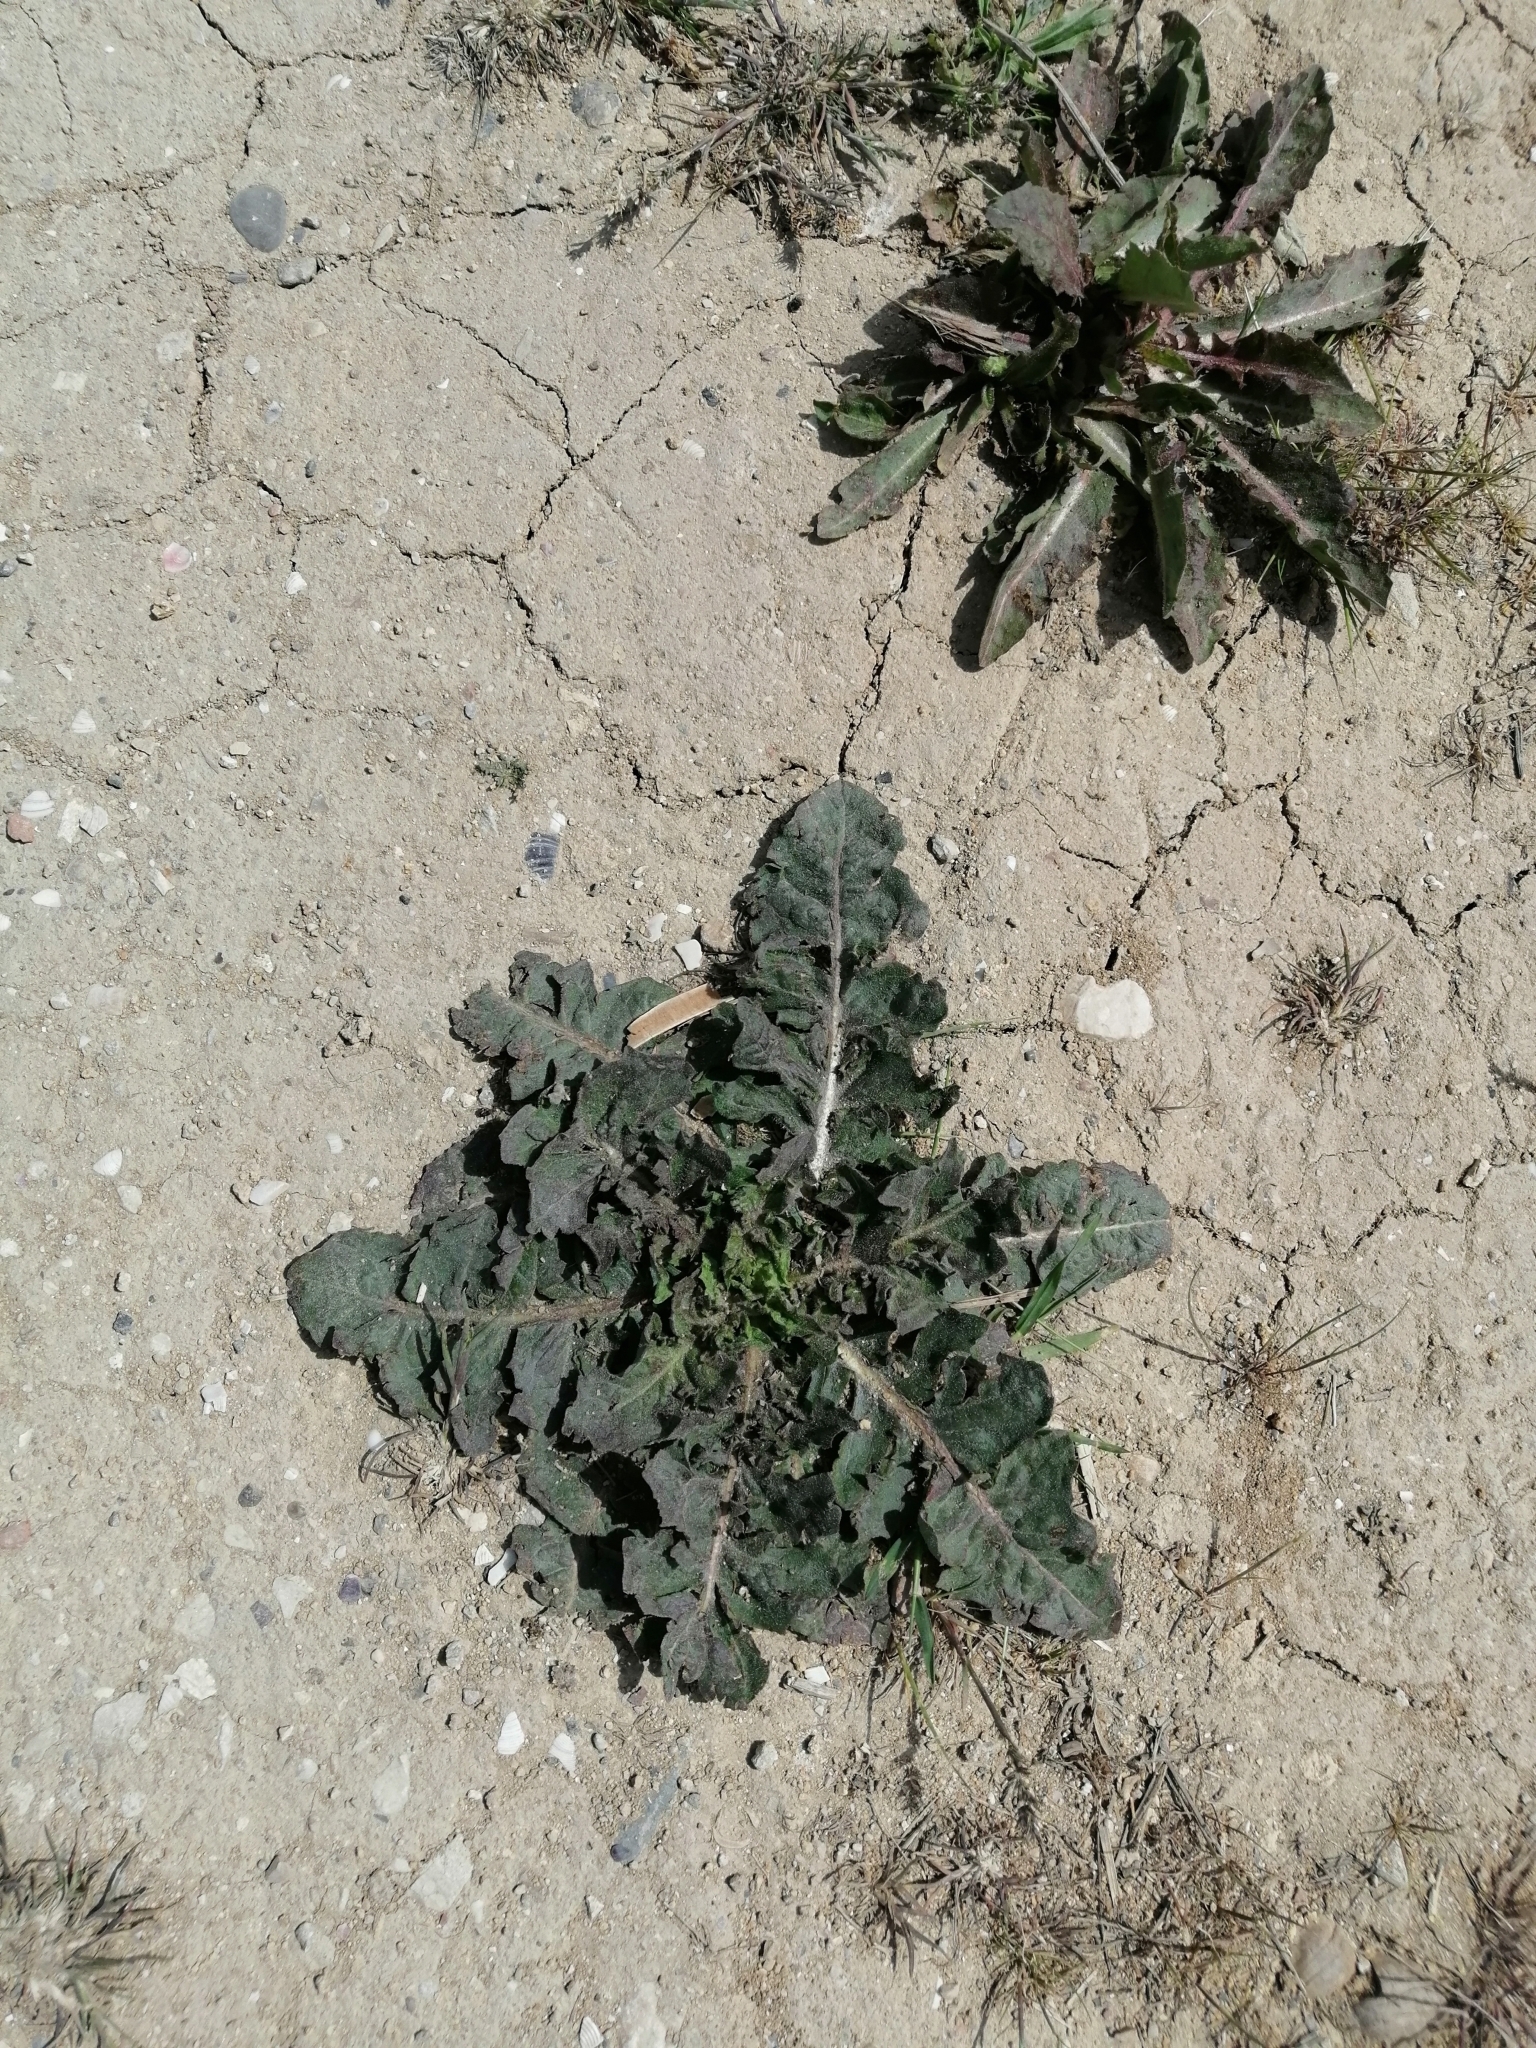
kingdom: Plantae
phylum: Tracheophyta
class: Magnoliopsida
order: Brassicales
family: Brassicaceae
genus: Sisymbrium
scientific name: Sisymbrium loeselii
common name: False london-rocket
